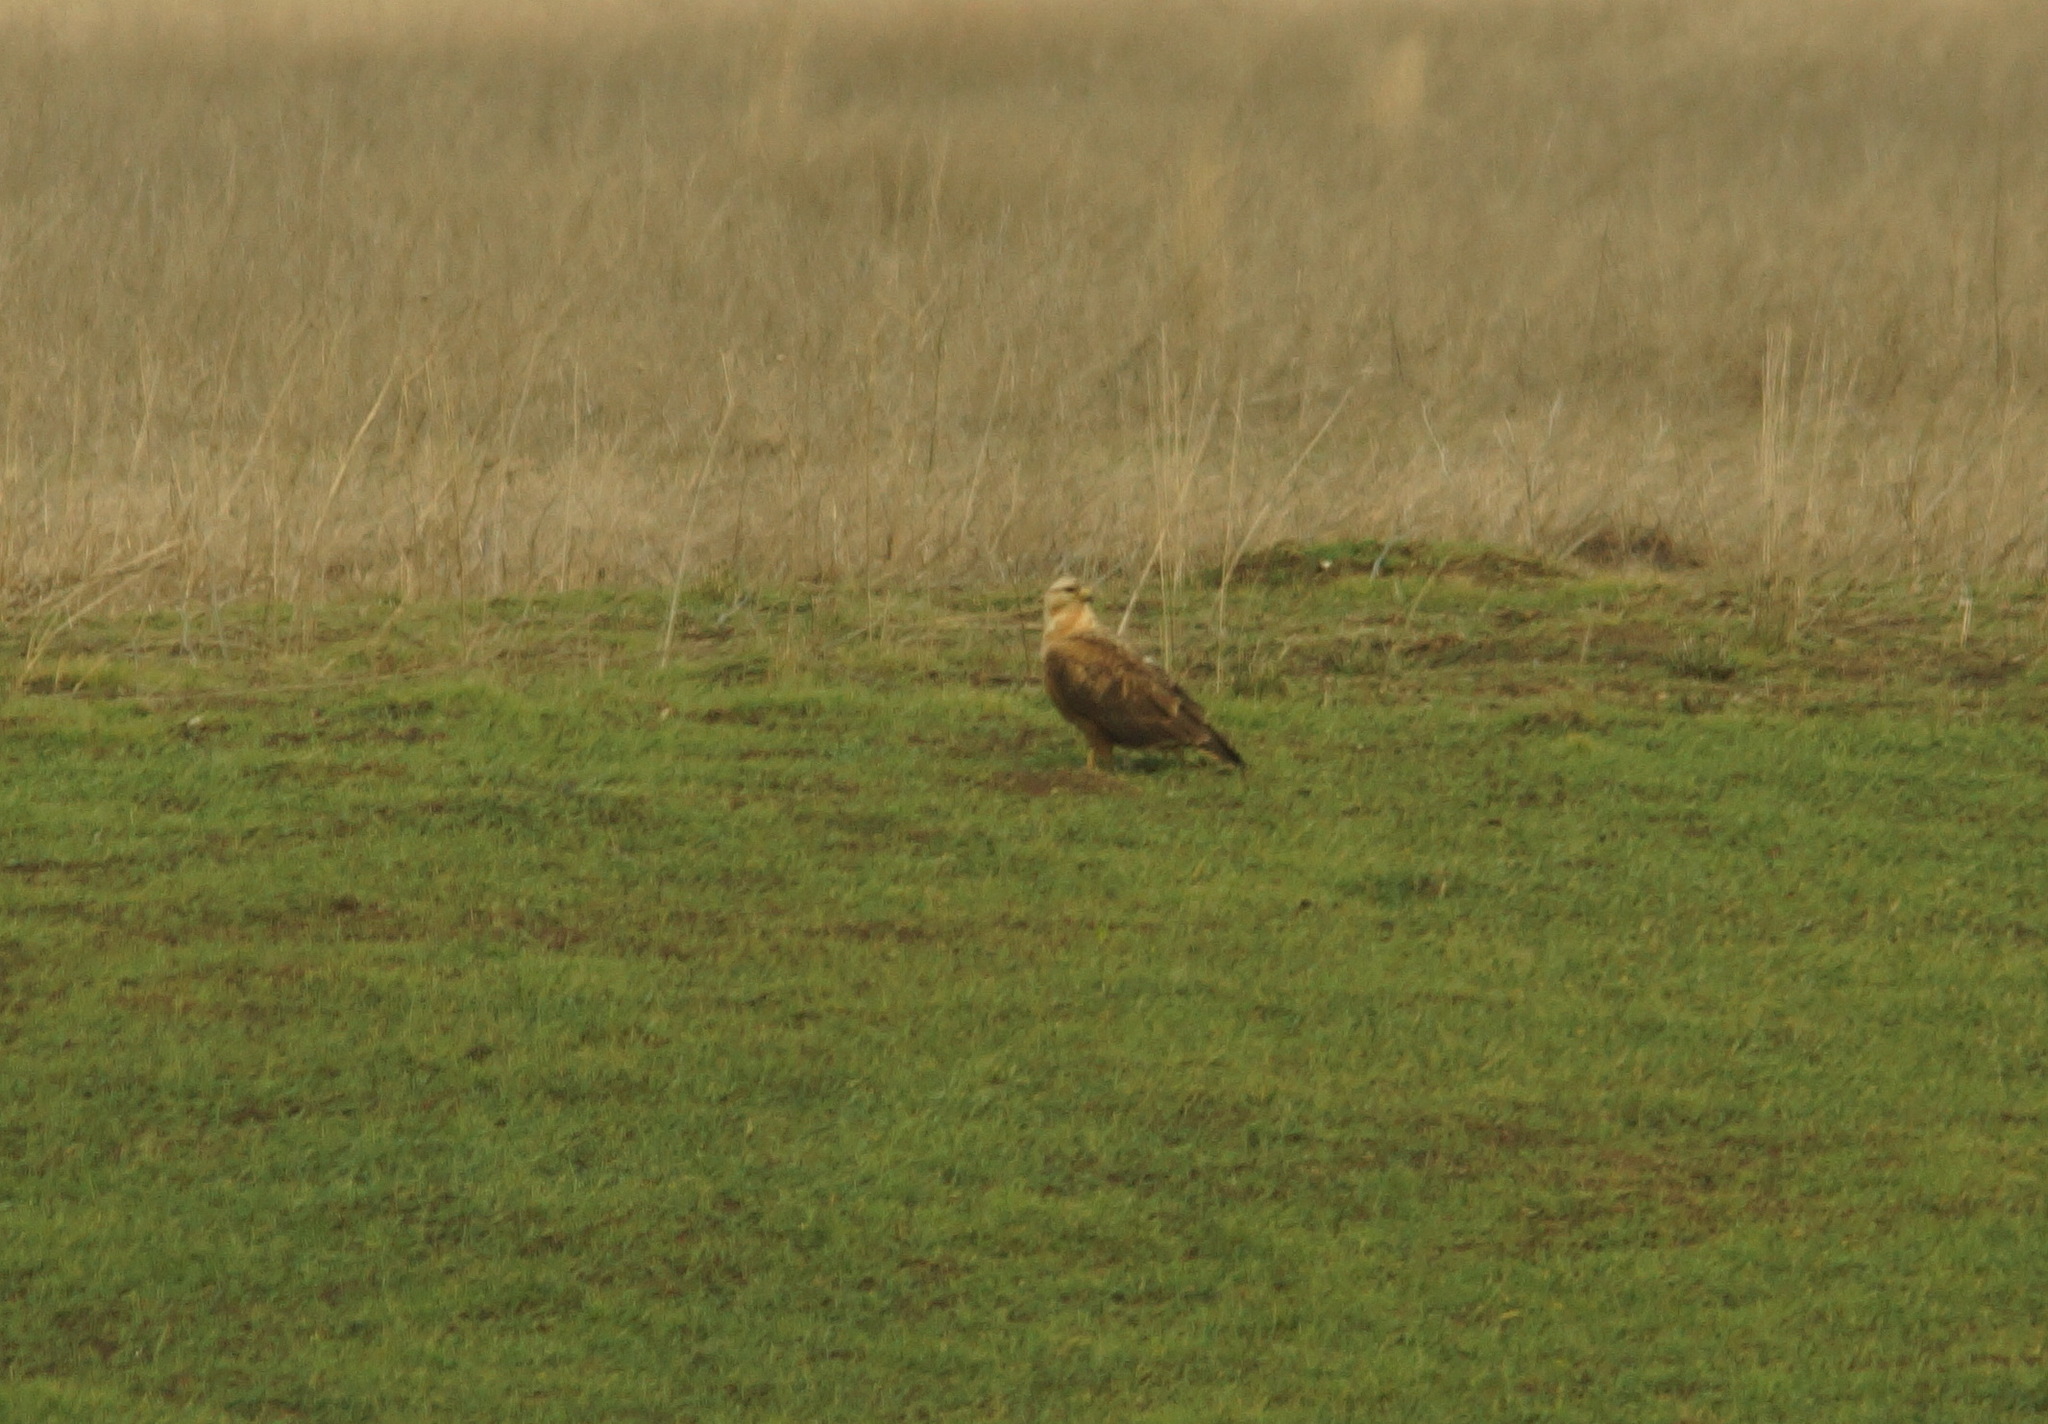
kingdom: Animalia
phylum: Chordata
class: Aves
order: Accipitriformes
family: Accipitridae
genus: Buteo
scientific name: Buteo rufinus
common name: Long-legged buzzard
